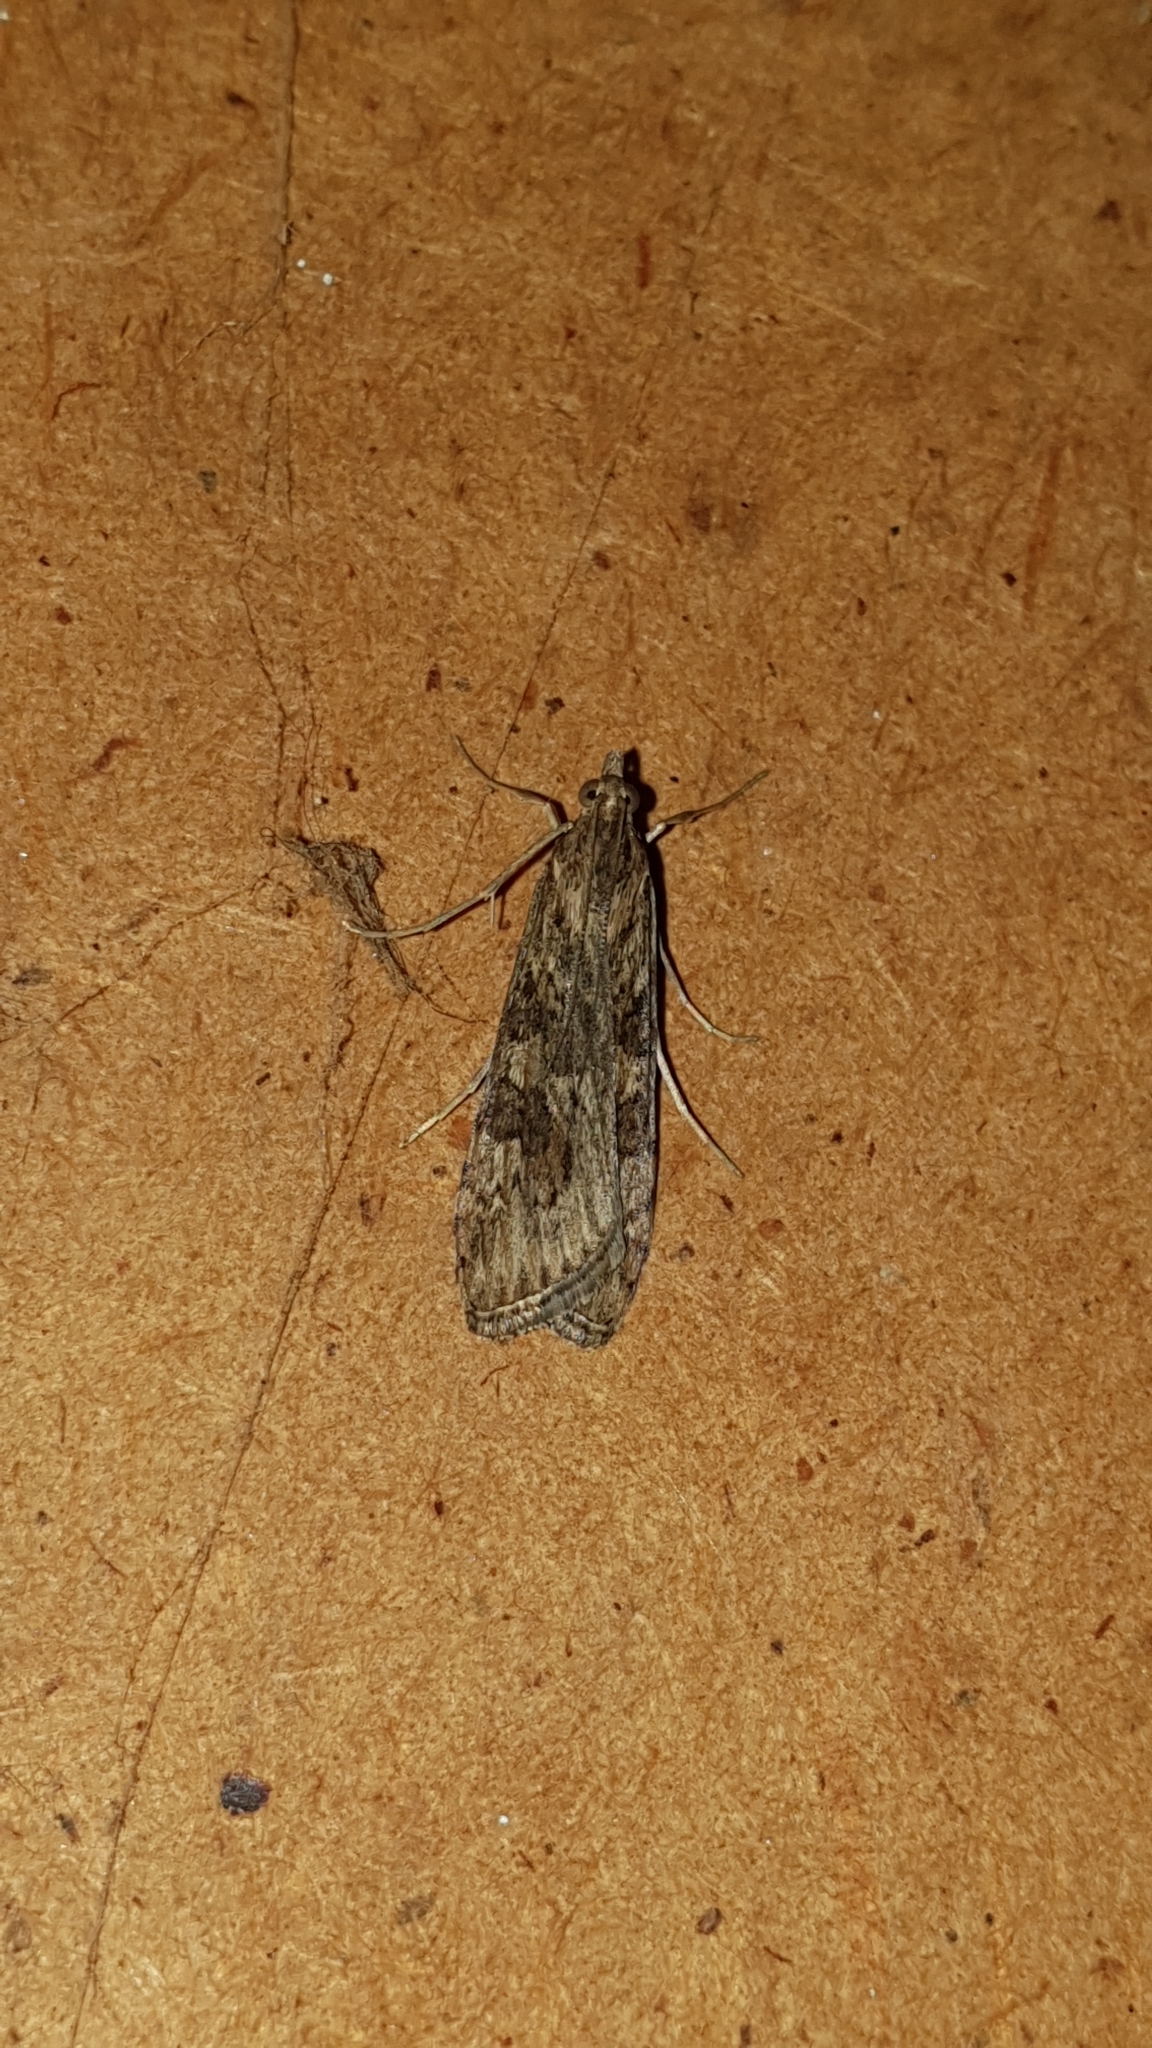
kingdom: Animalia
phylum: Arthropoda
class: Insecta
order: Lepidoptera
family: Crambidae
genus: Nomophila
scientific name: Nomophila noctuella
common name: Rush veneer
